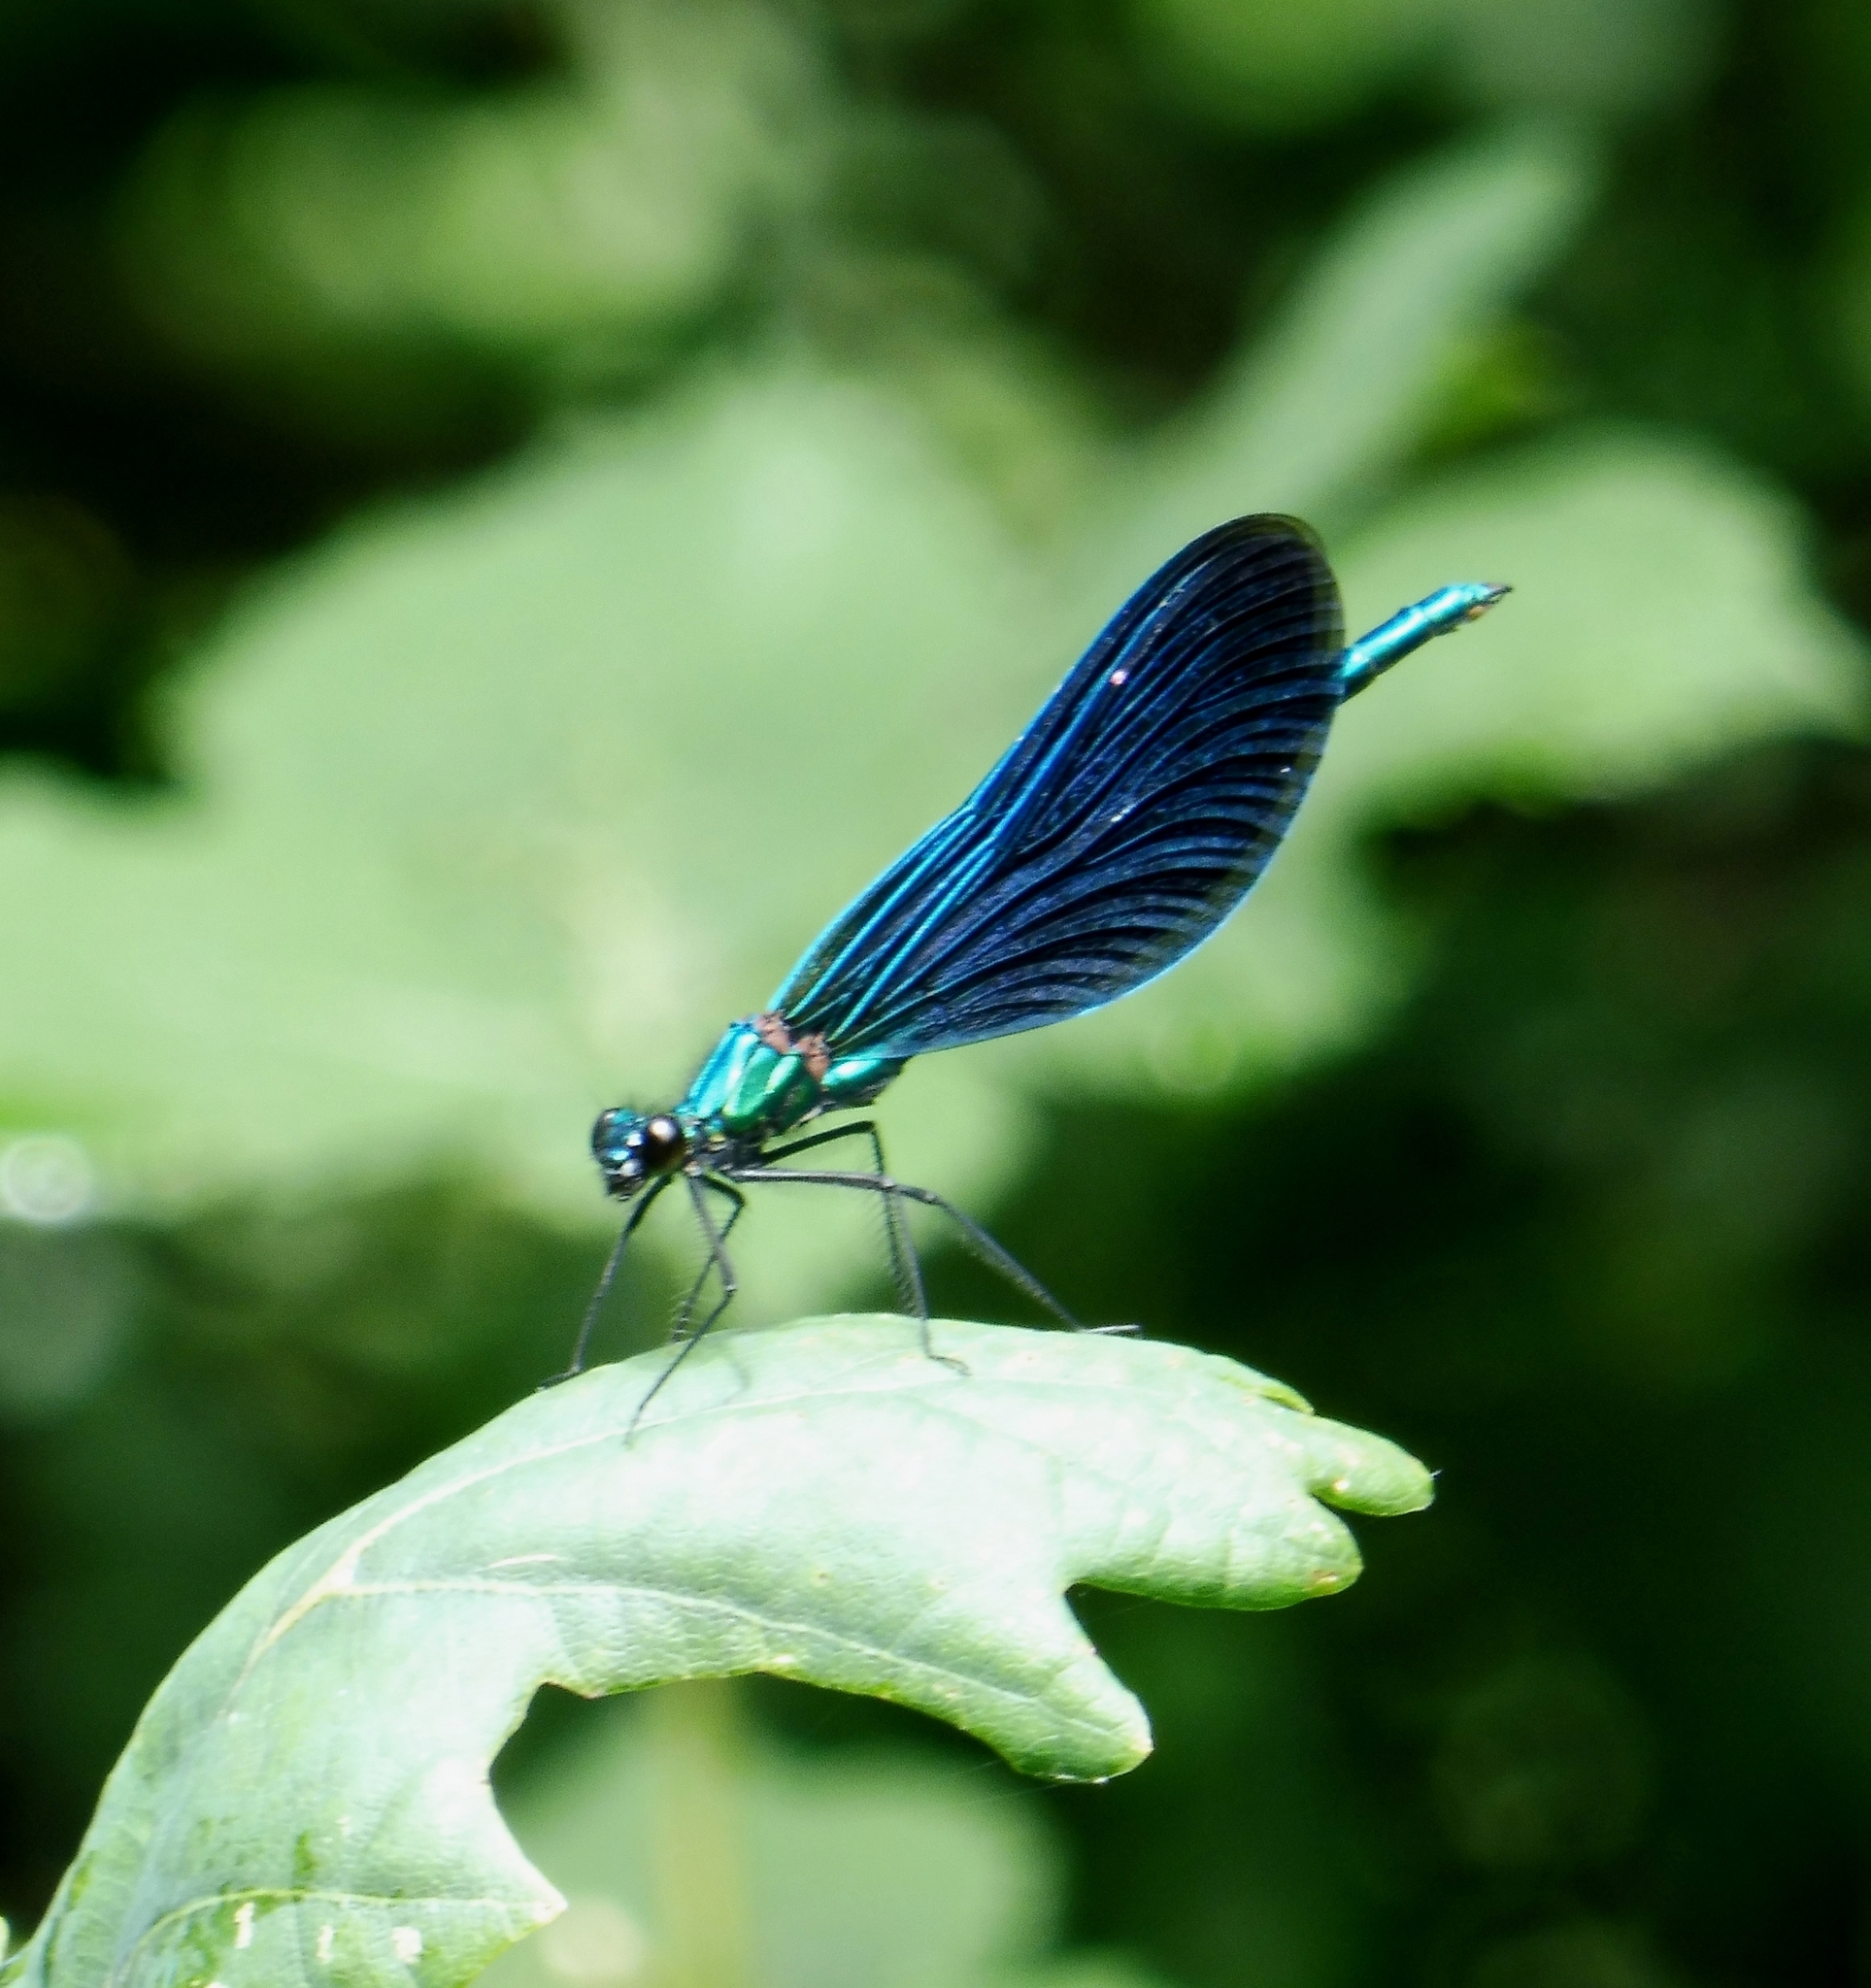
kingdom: Animalia
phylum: Arthropoda
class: Insecta
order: Odonata
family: Calopterygidae
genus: Calopteryx
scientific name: Calopteryx virgo
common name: Beautiful demoiselle
